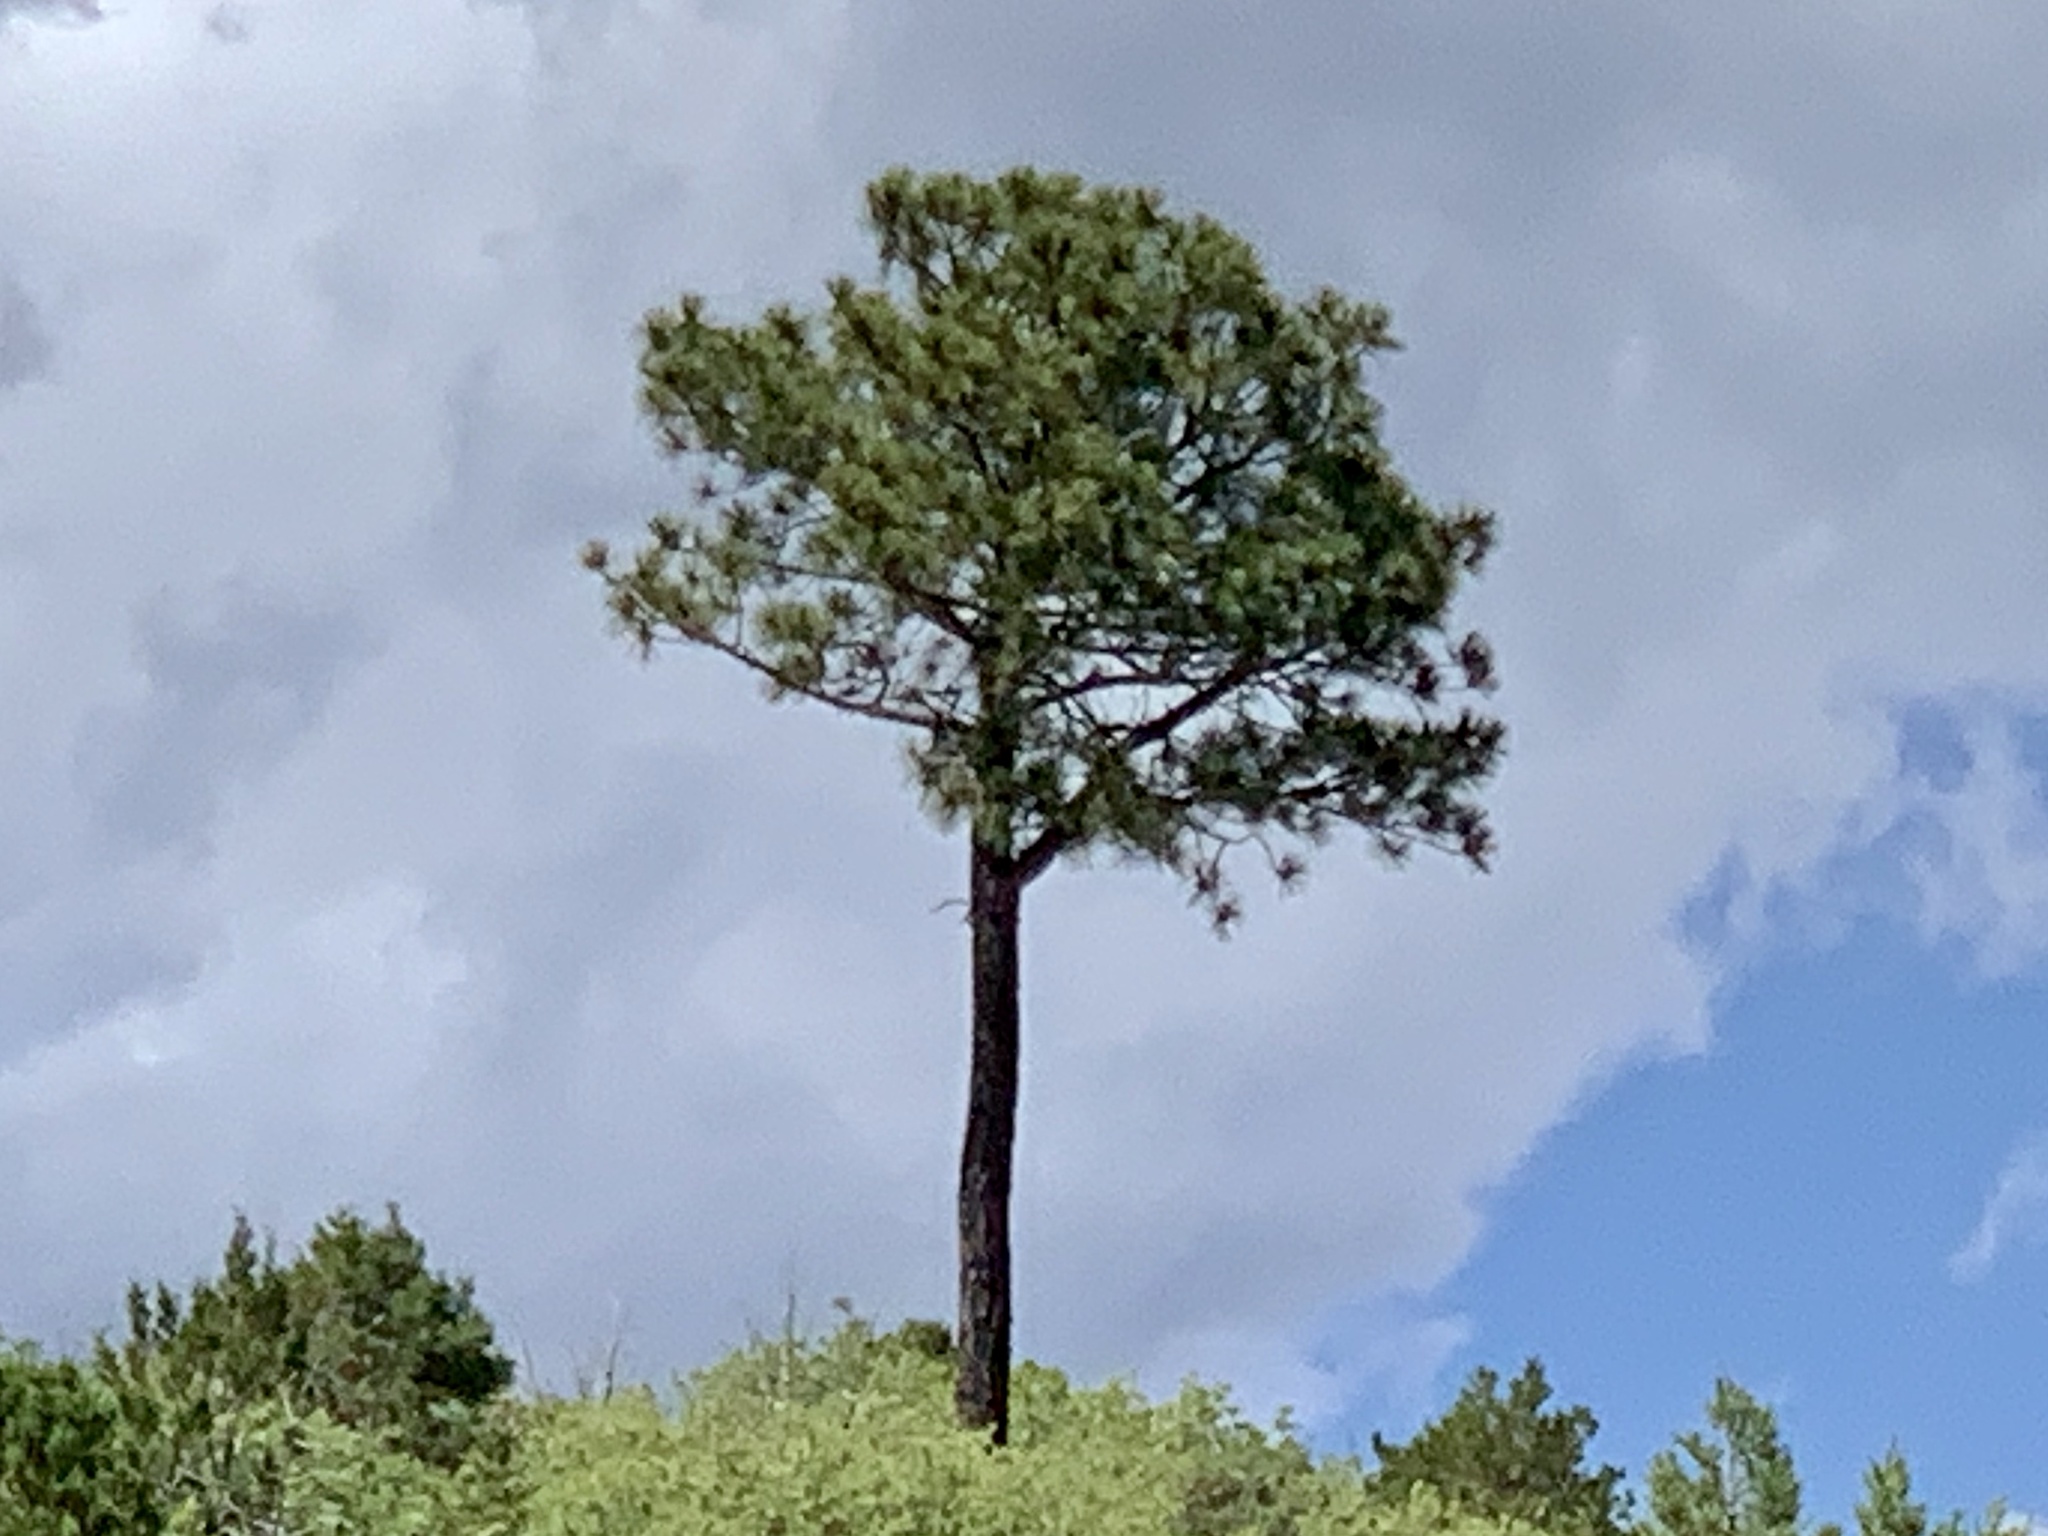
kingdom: Plantae
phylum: Tracheophyta
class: Pinopsida
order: Pinales
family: Pinaceae
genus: Pinus
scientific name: Pinus ponderosa
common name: Western yellow-pine
